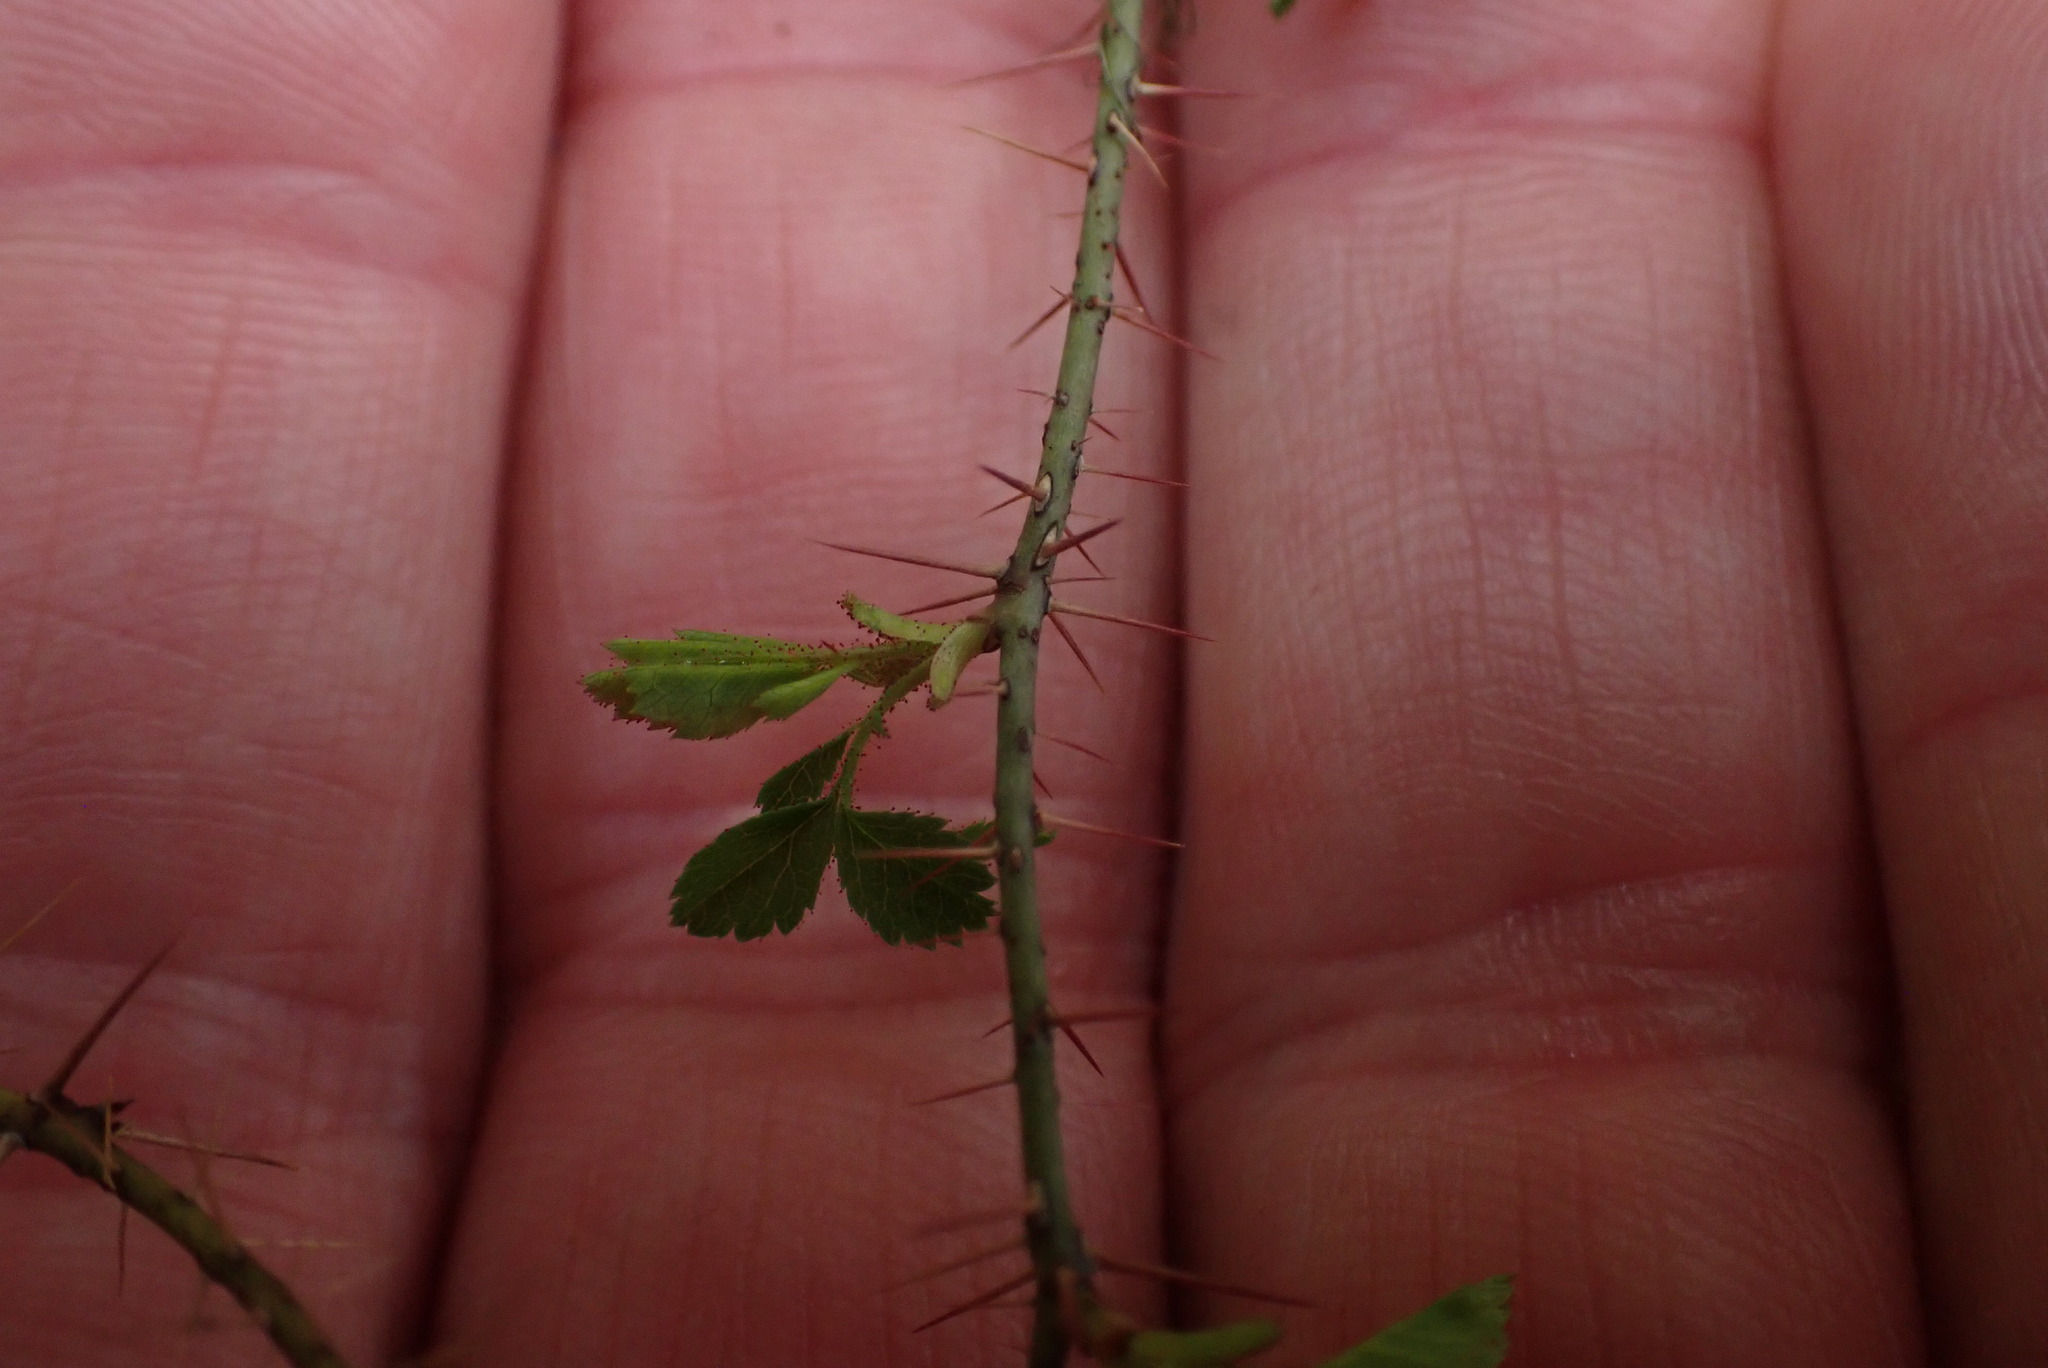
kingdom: Plantae
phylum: Tracheophyta
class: Magnoliopsida
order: Rosales
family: Rosaceae
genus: Rosa
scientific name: Rosa gymnocarpa
